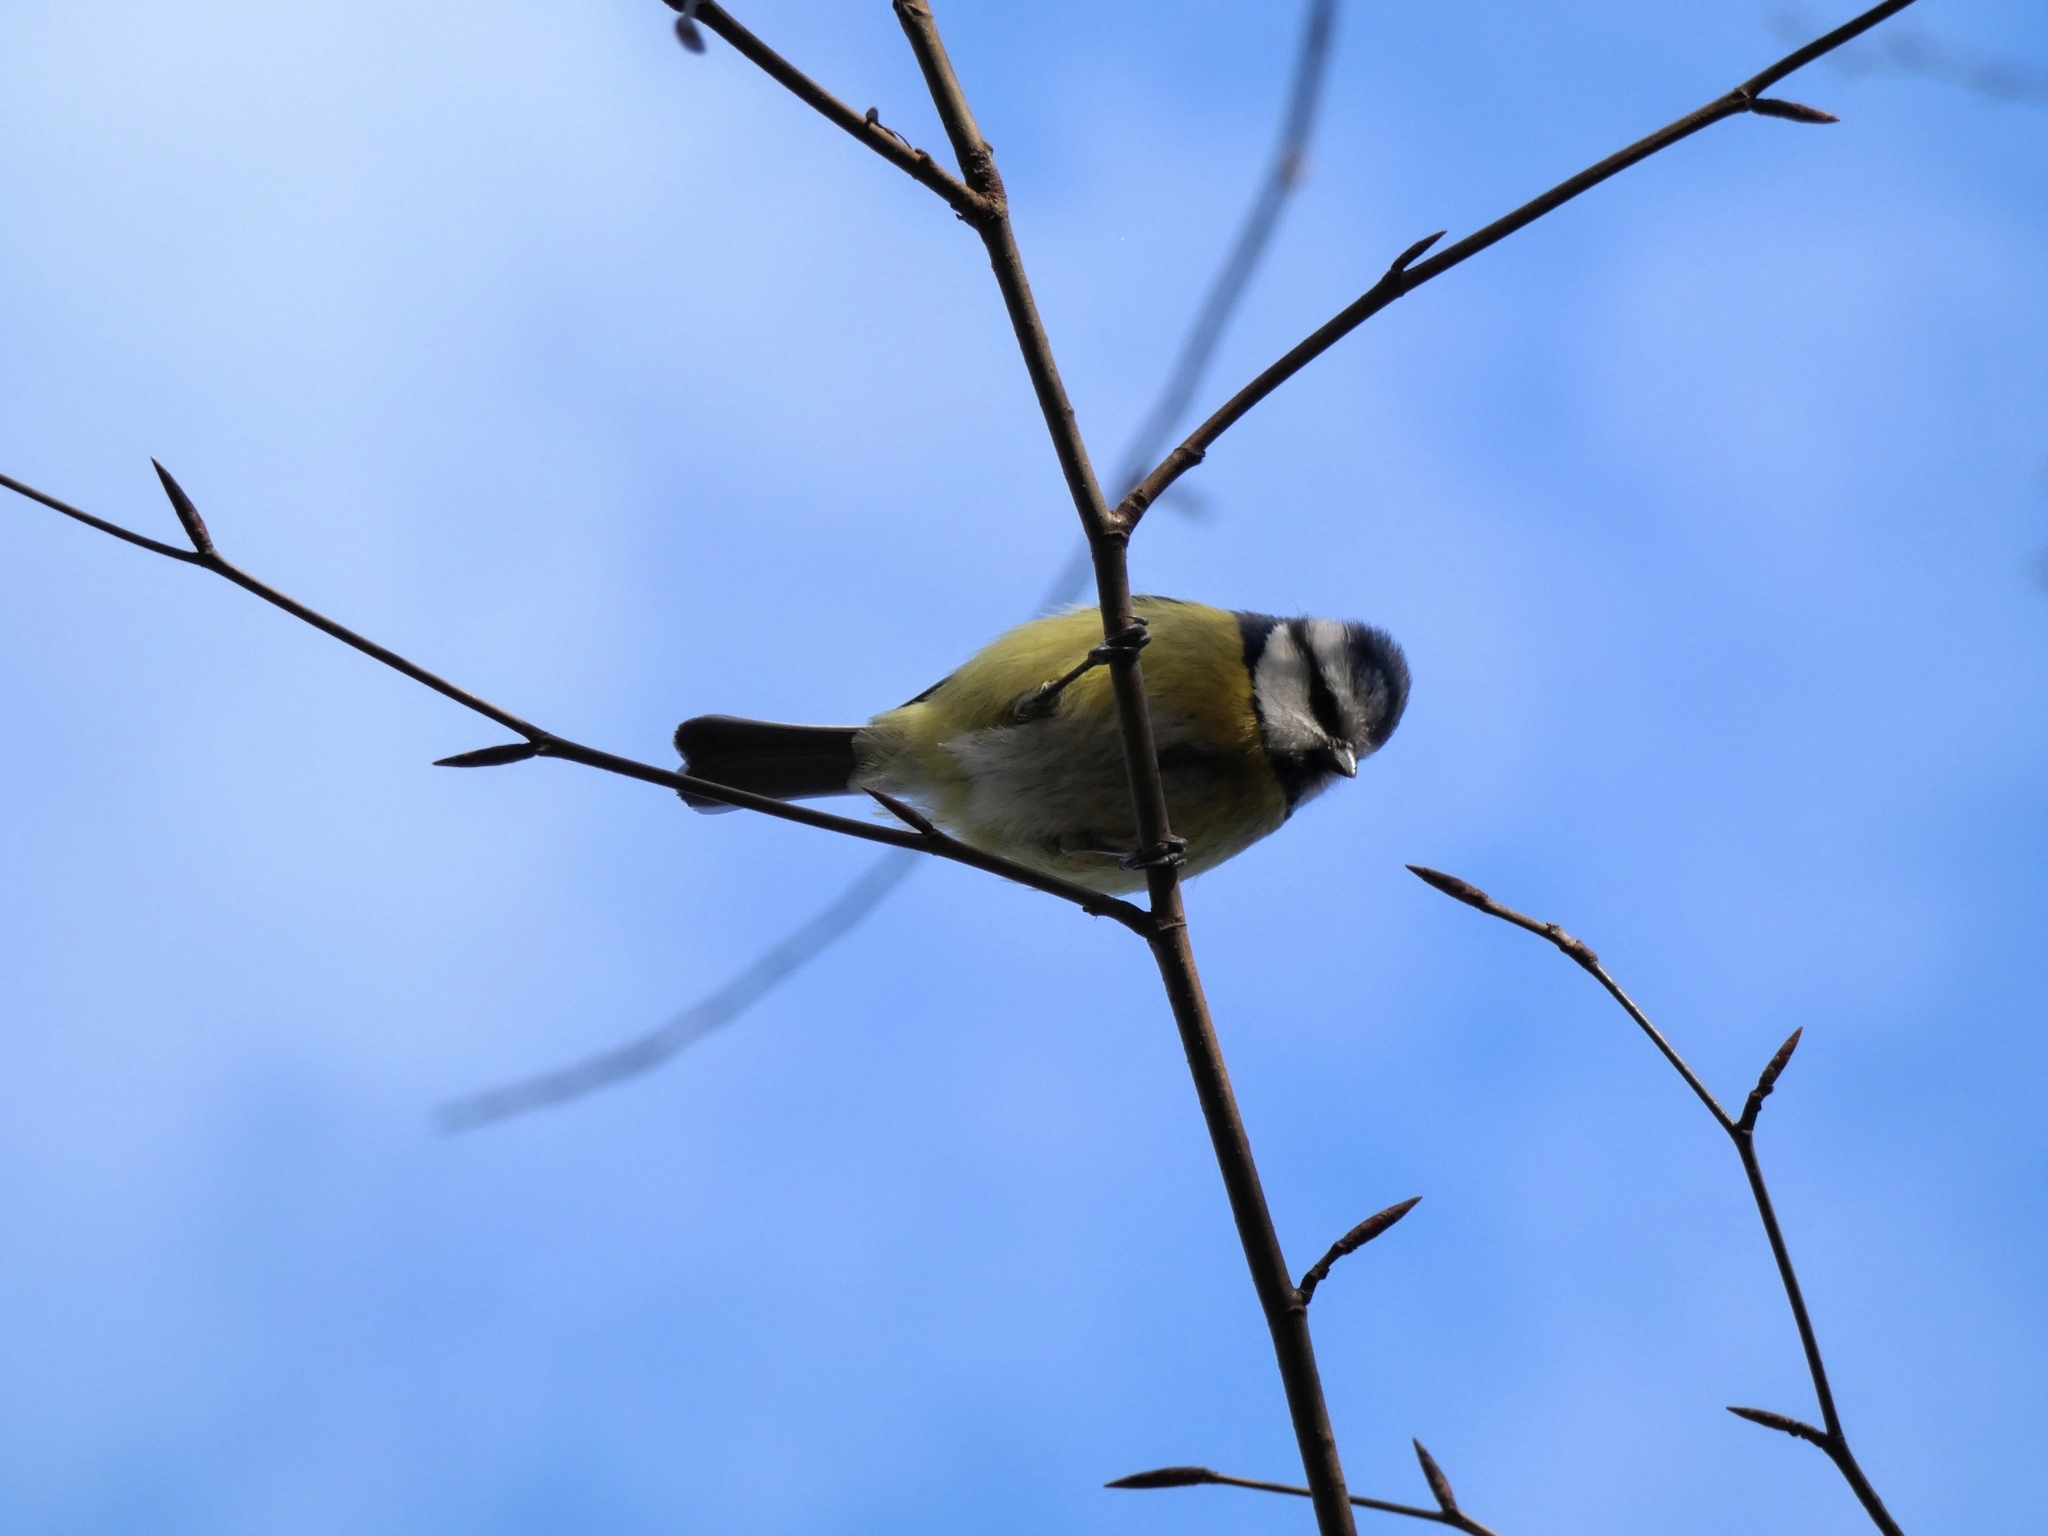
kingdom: Animalia
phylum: Chordata
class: Aves
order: Passeriformes
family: Paridae
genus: Cyanistes
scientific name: Cyanistes caeruleus
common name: Eurasian blue tit
